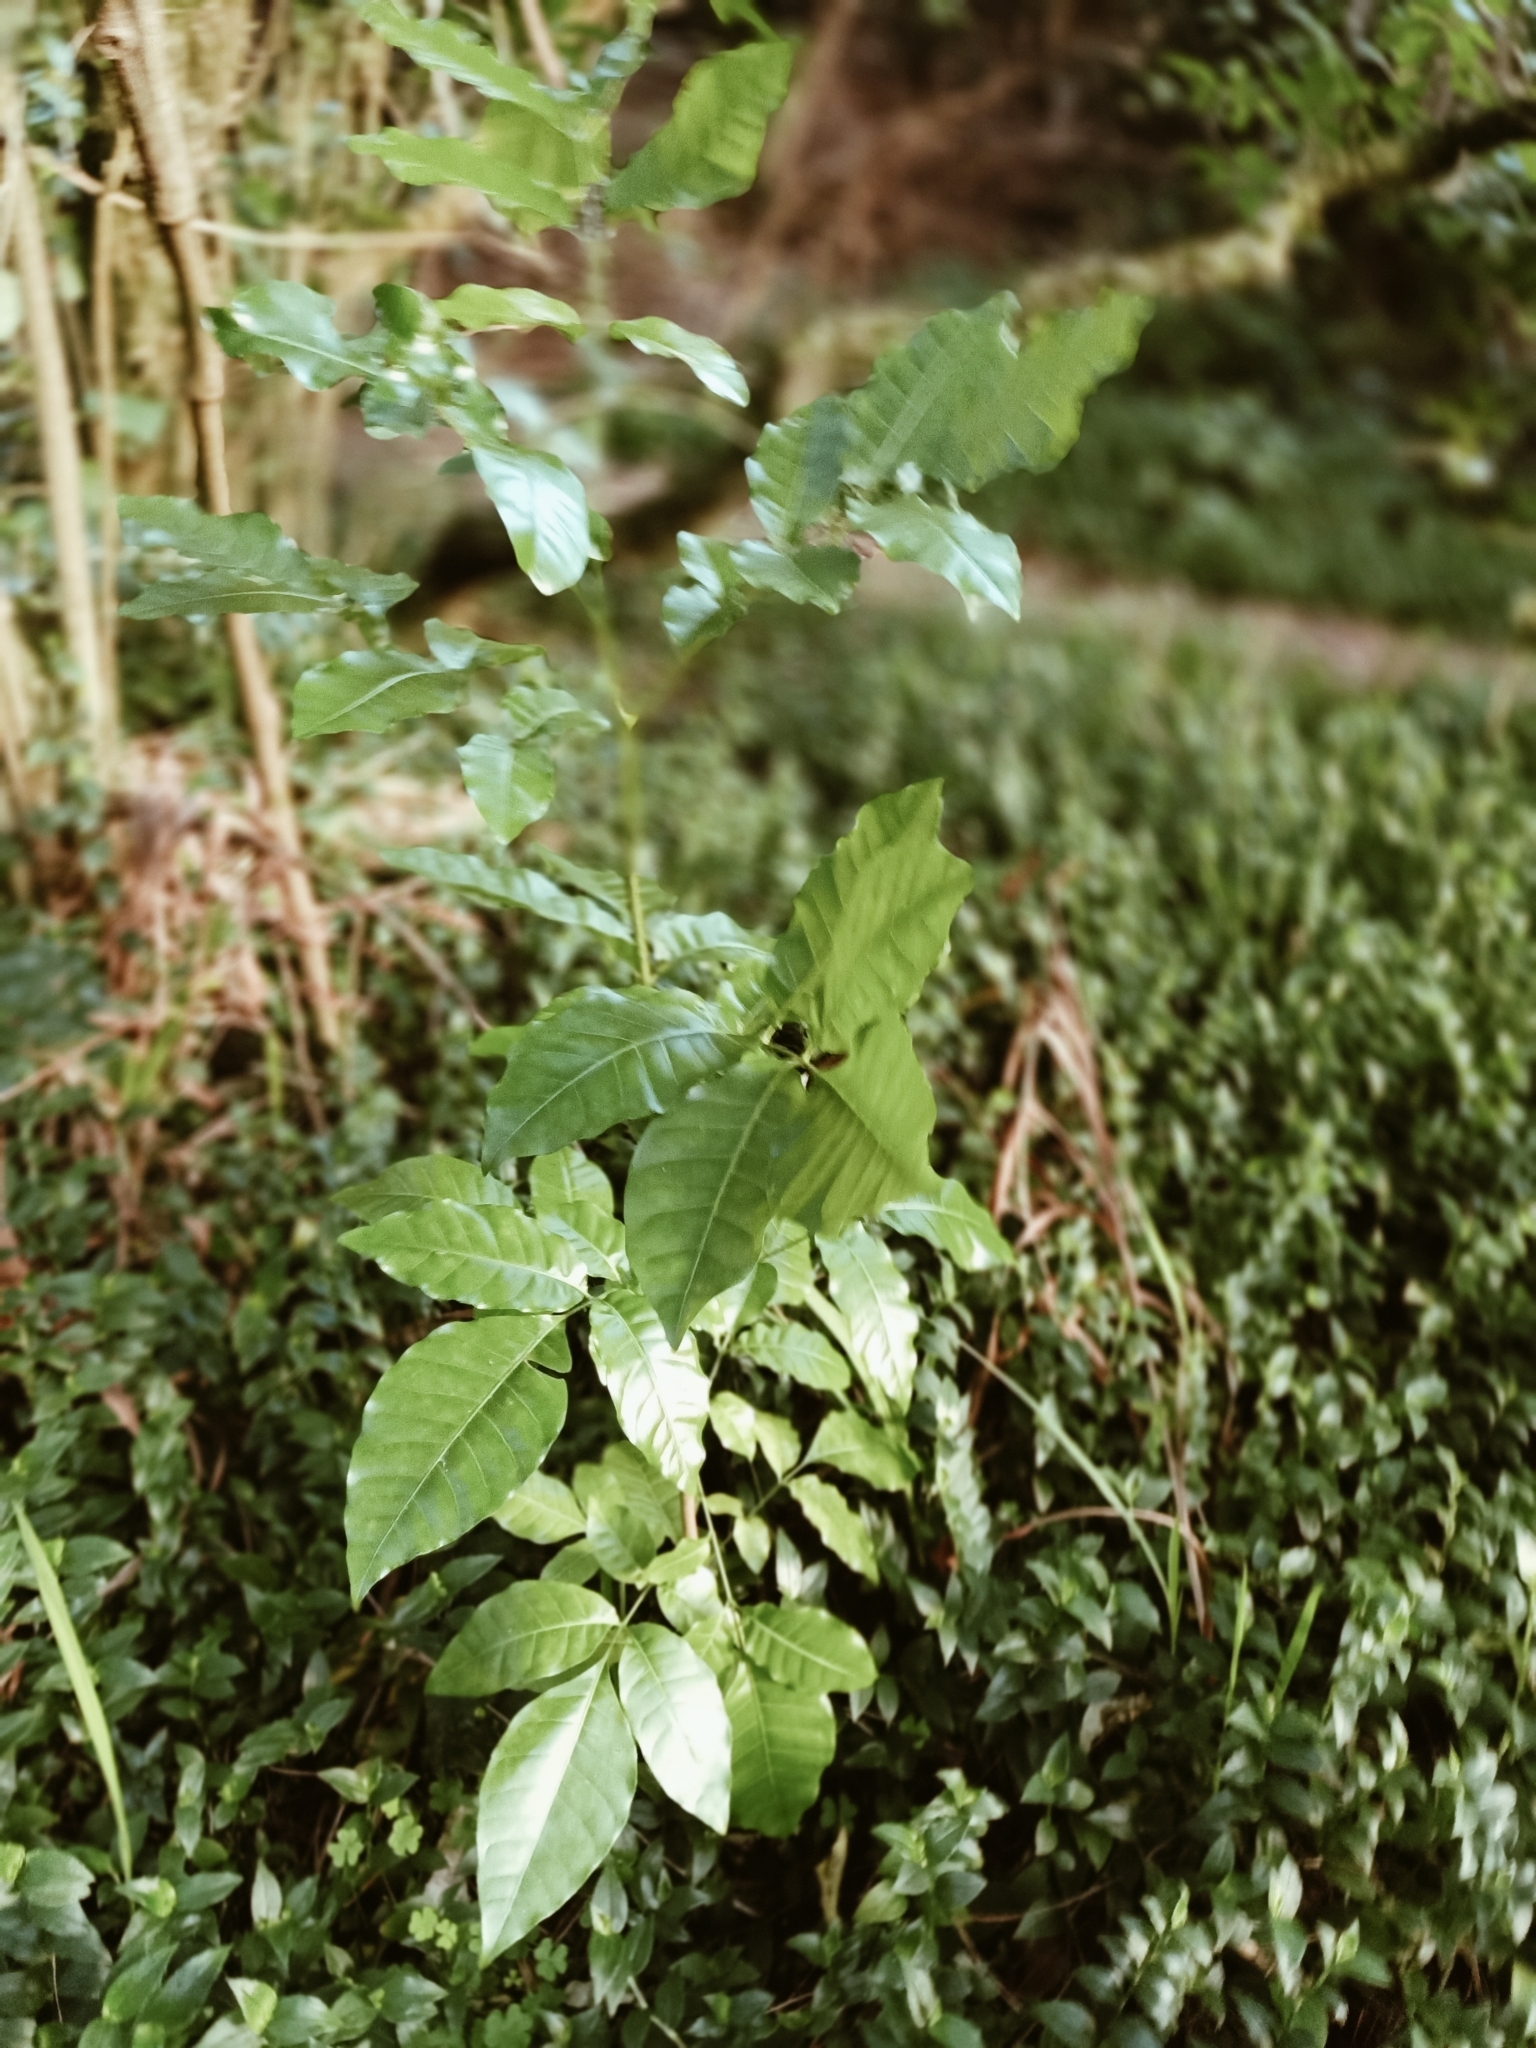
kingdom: Plantae
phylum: Tracheophyta
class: Magnoliopsida
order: Sapindales
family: Meliaceae
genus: Didymocheton
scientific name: Didymocheton spectabilis
